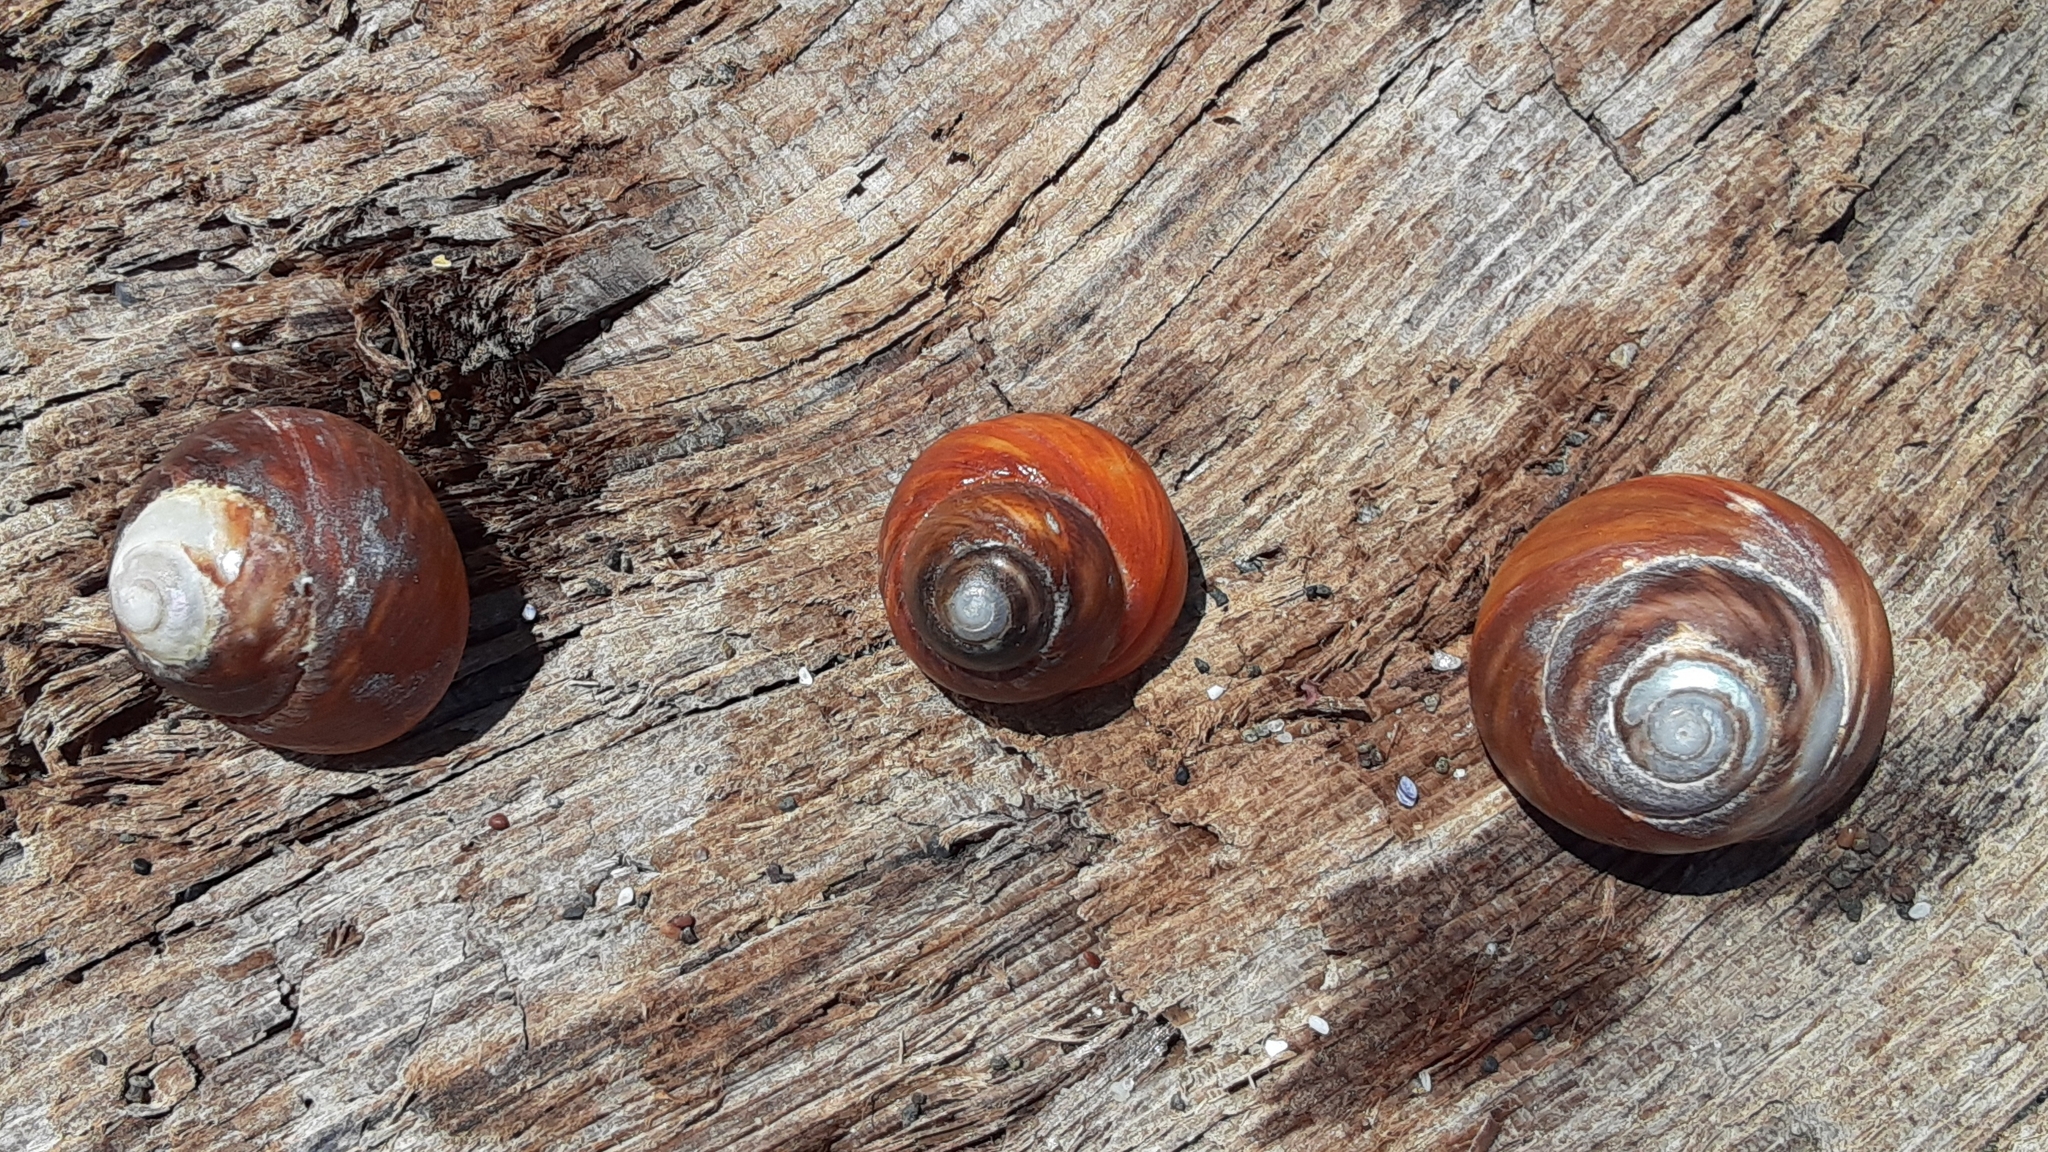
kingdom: Animalia
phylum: Mollusca
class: Gastropoda
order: Trochida
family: Tegulidae
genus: Tegula
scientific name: Tegula brunnea
